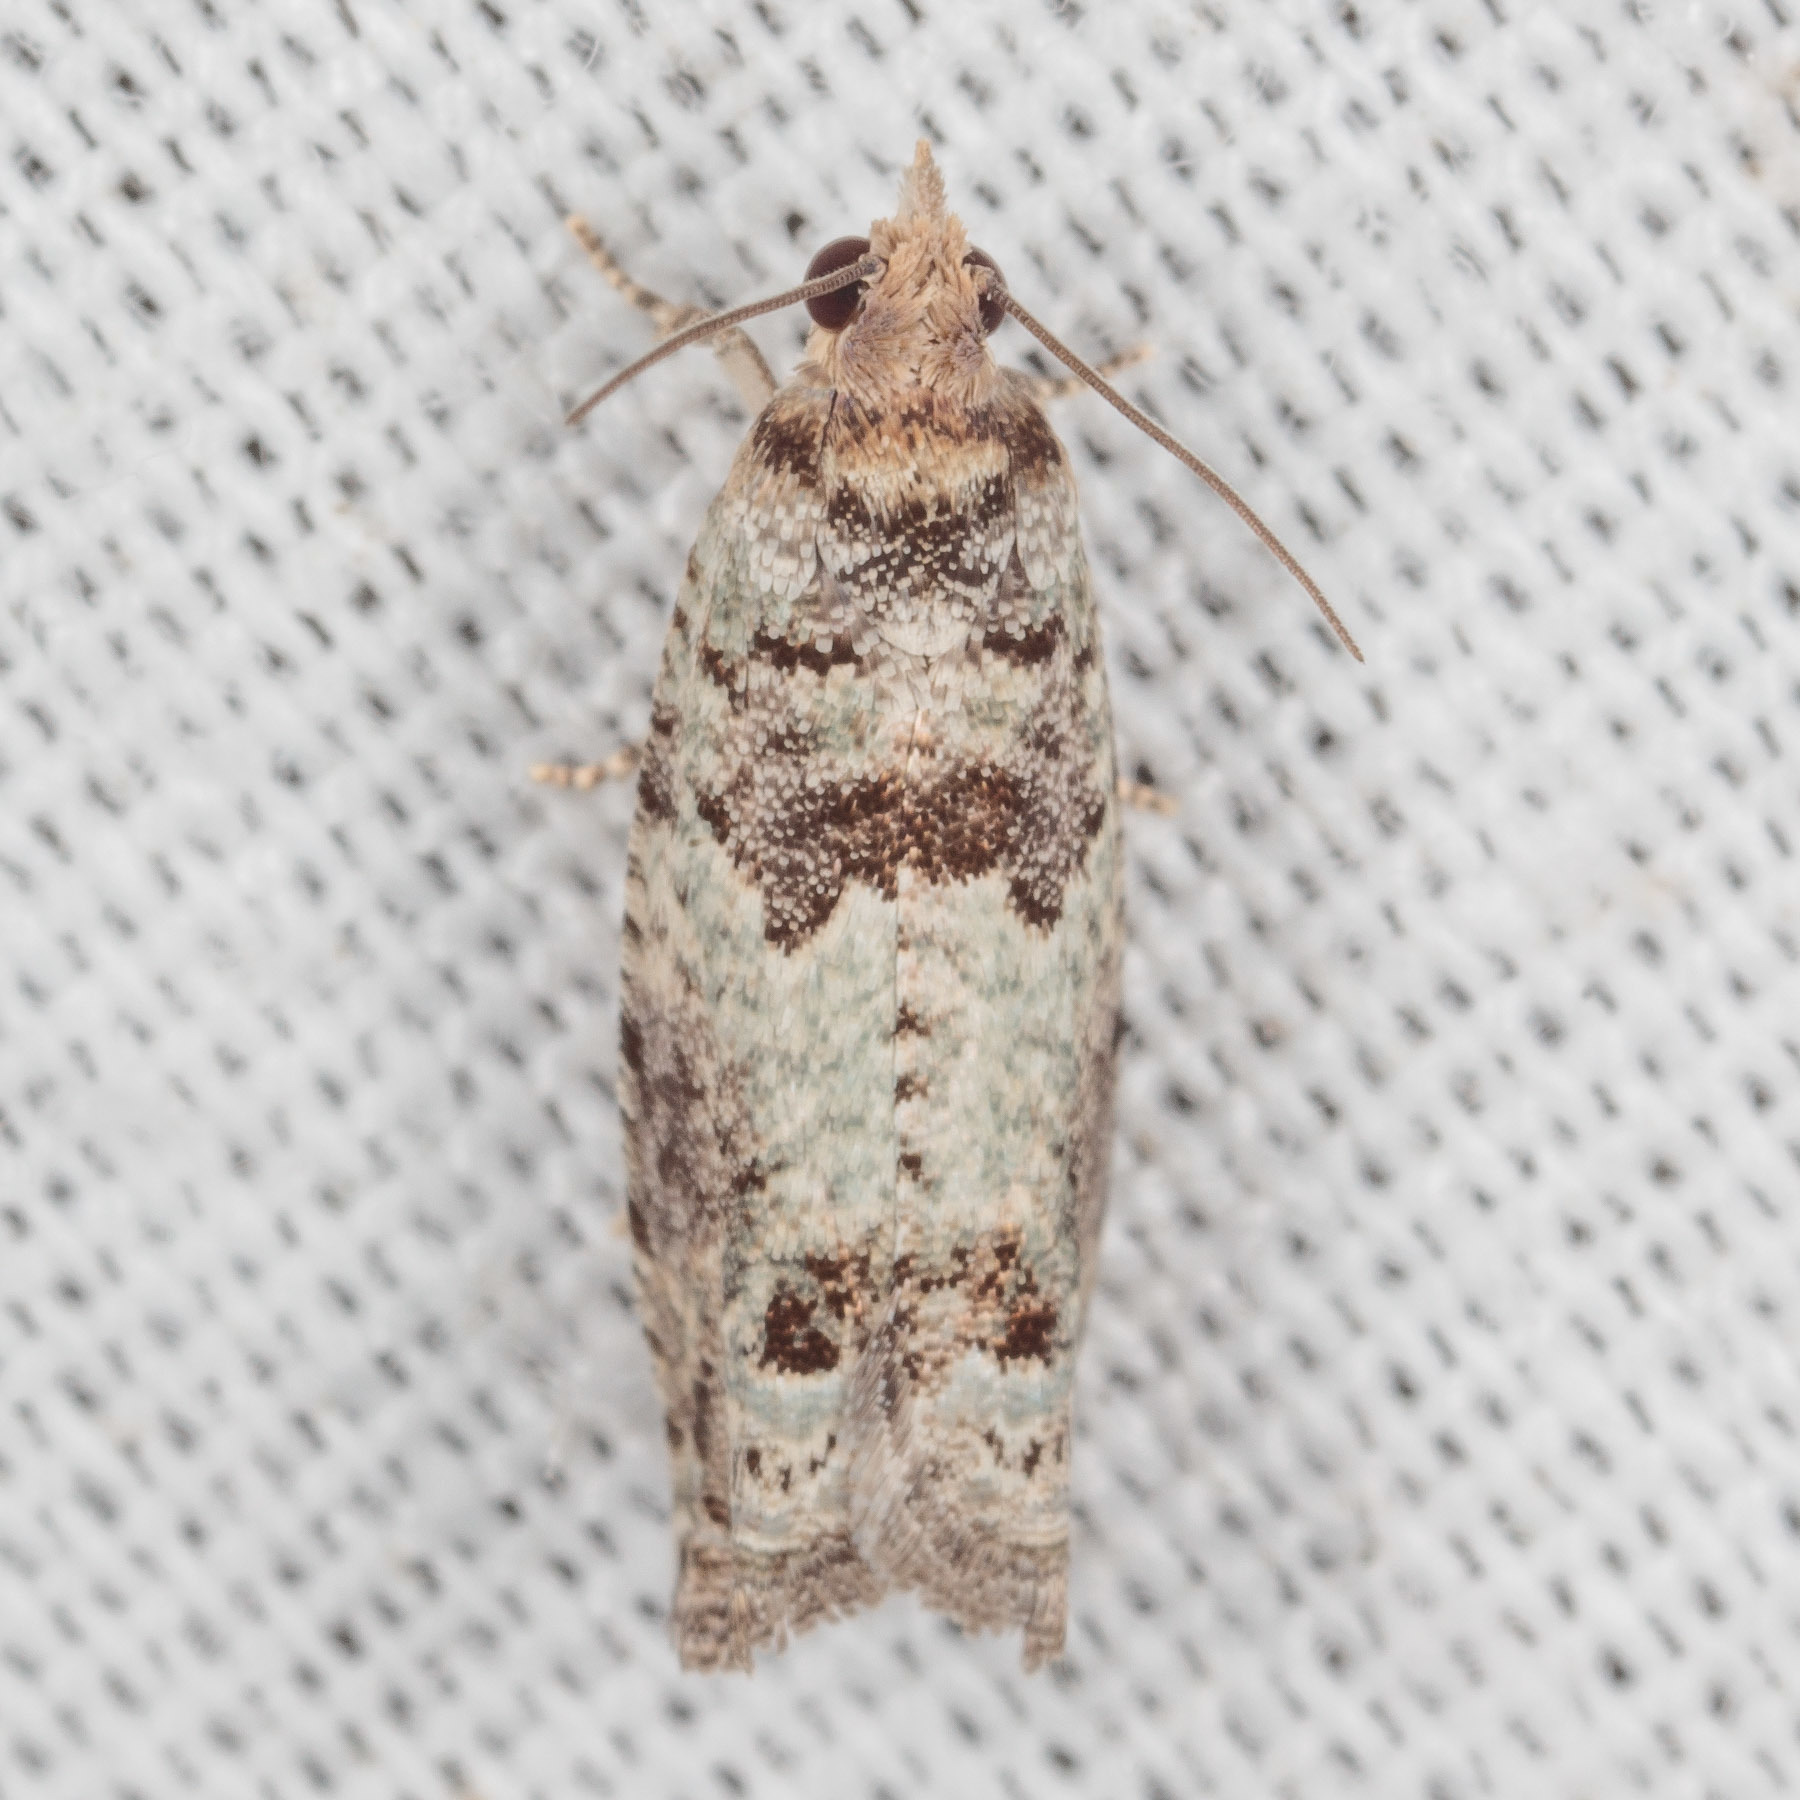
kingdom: Animalia
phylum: Arthropoda
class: Insecta
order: Lepidoptera
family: Tortricidae
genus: Pseudexentera
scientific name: Pseudexentera knudsoni
